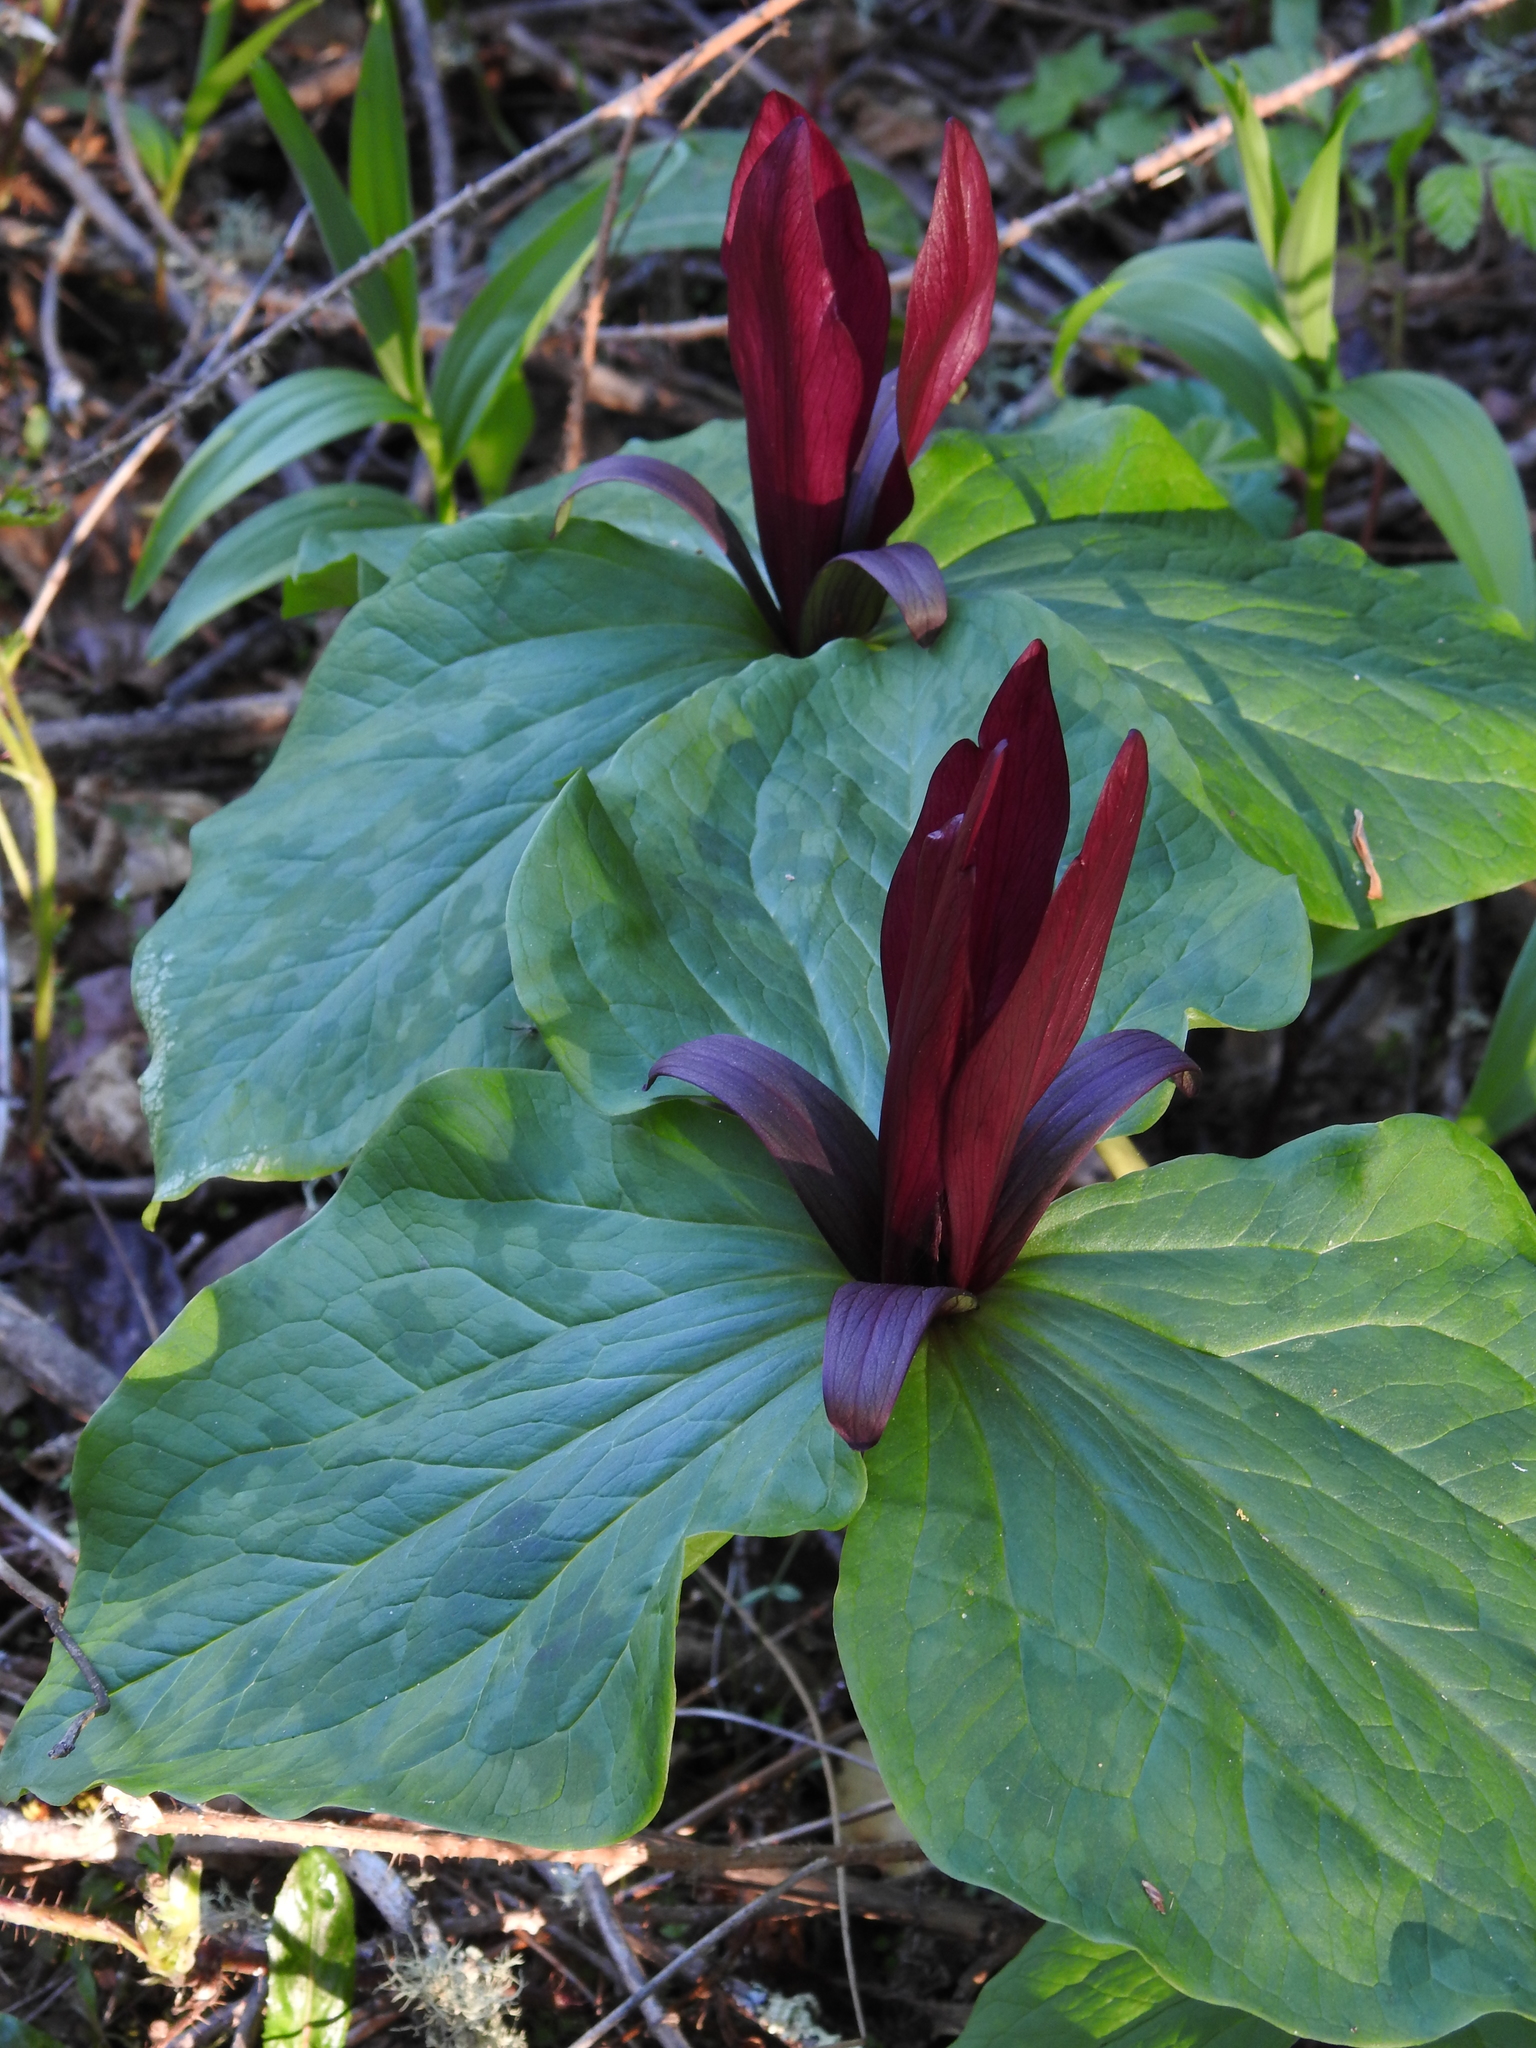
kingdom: Plantae
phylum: Tracheophyta
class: Liliopsida
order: Liliales
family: Melanthiaceae
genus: Trillium
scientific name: Trillium chloropetalum
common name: Giant trillium
